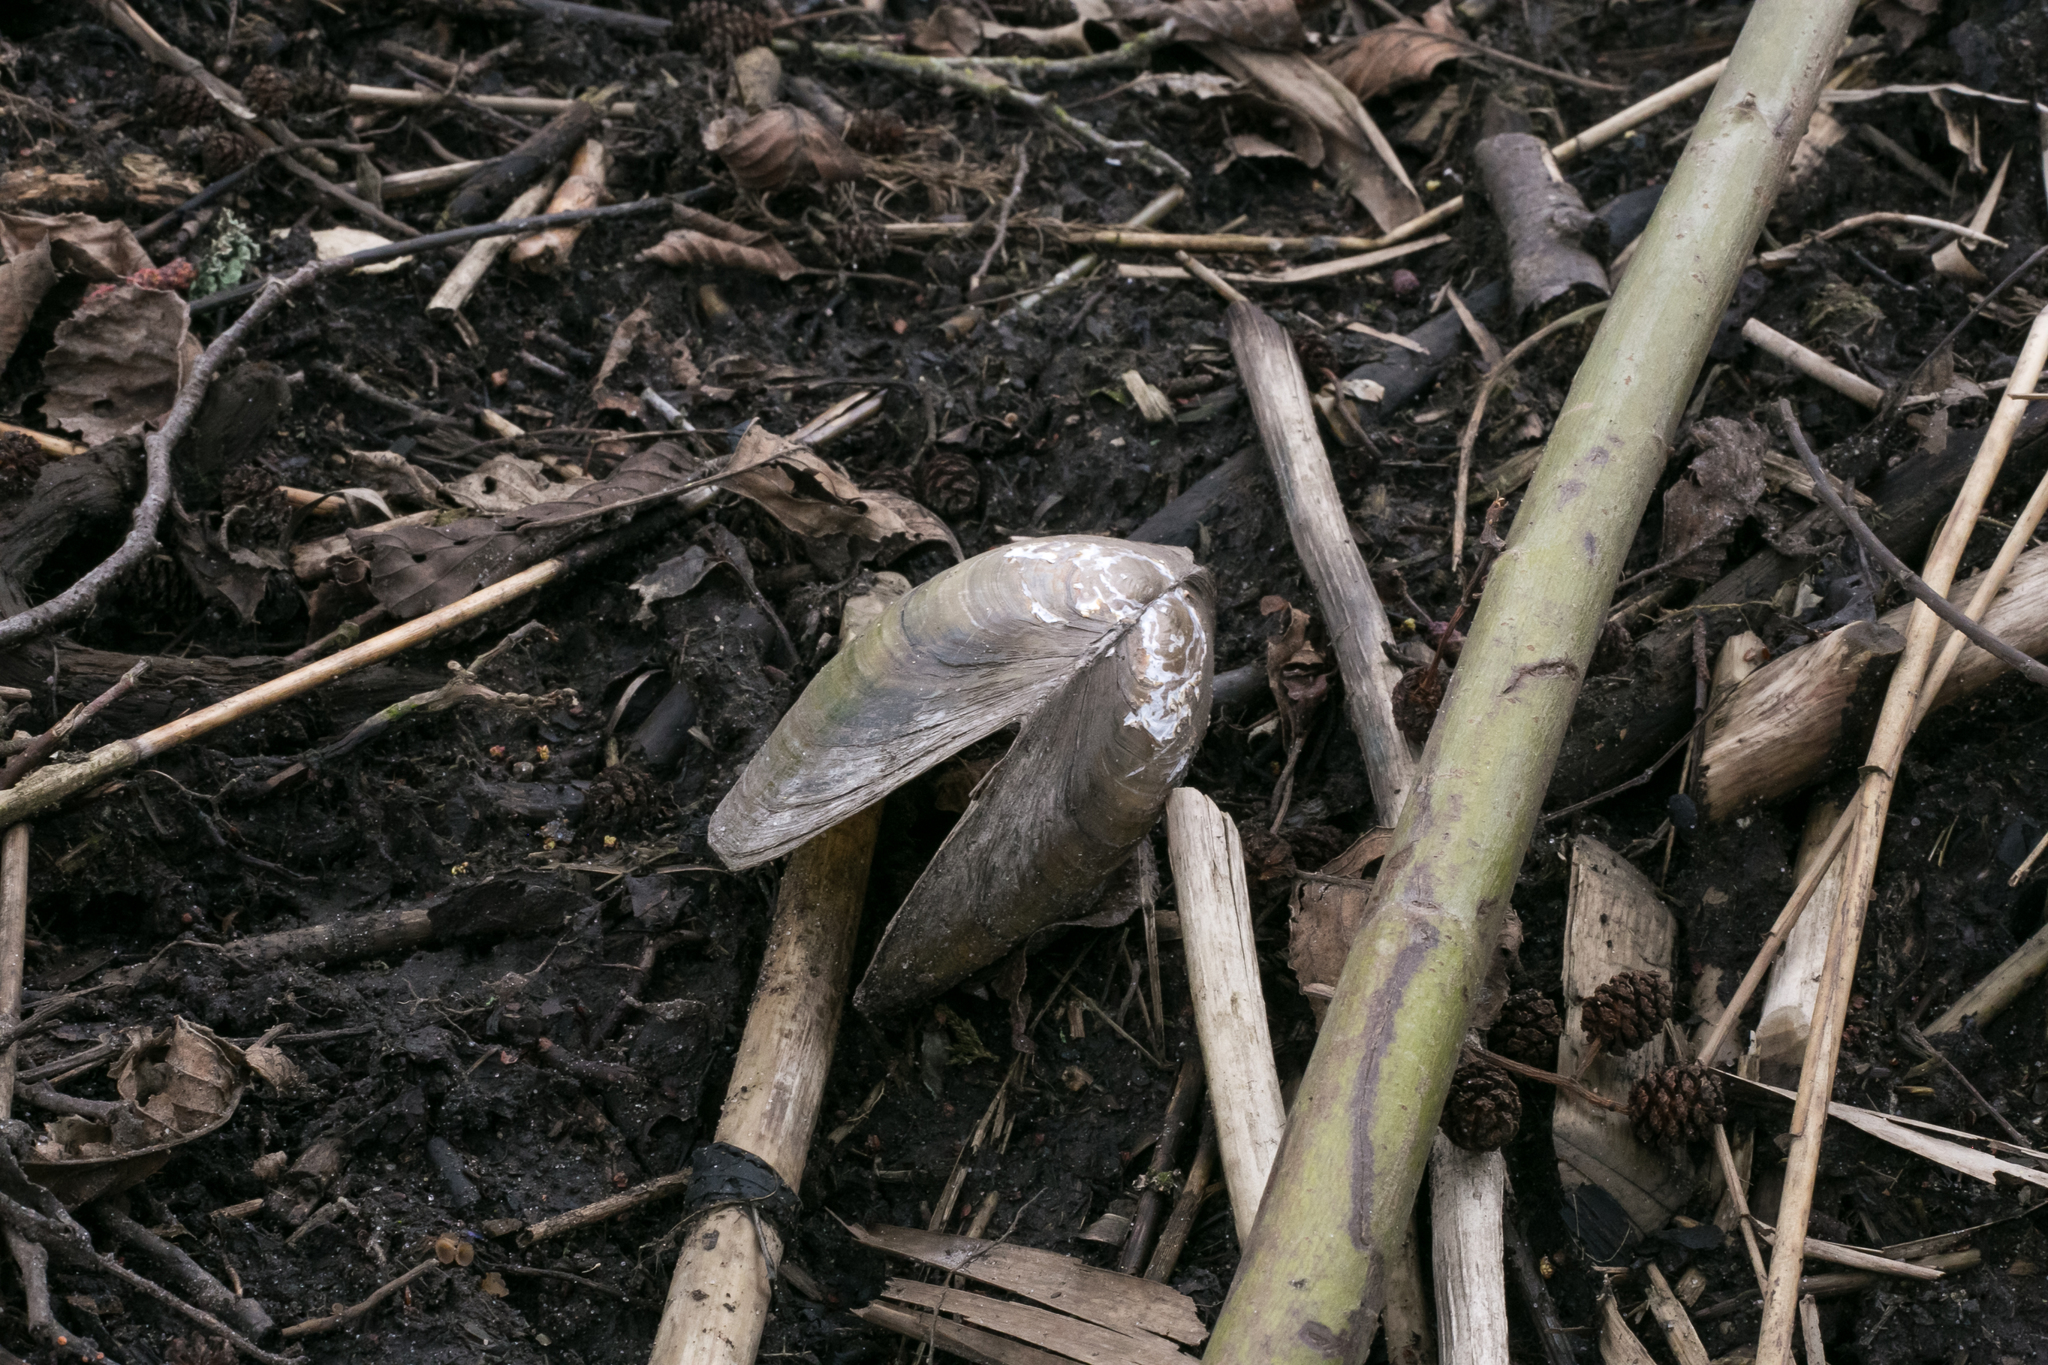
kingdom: Animalia
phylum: Mollusca
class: Bivalvia
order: Unionida
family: Unionidae
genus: Anodonta
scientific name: Anodonta cygnea
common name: Swan mussel
